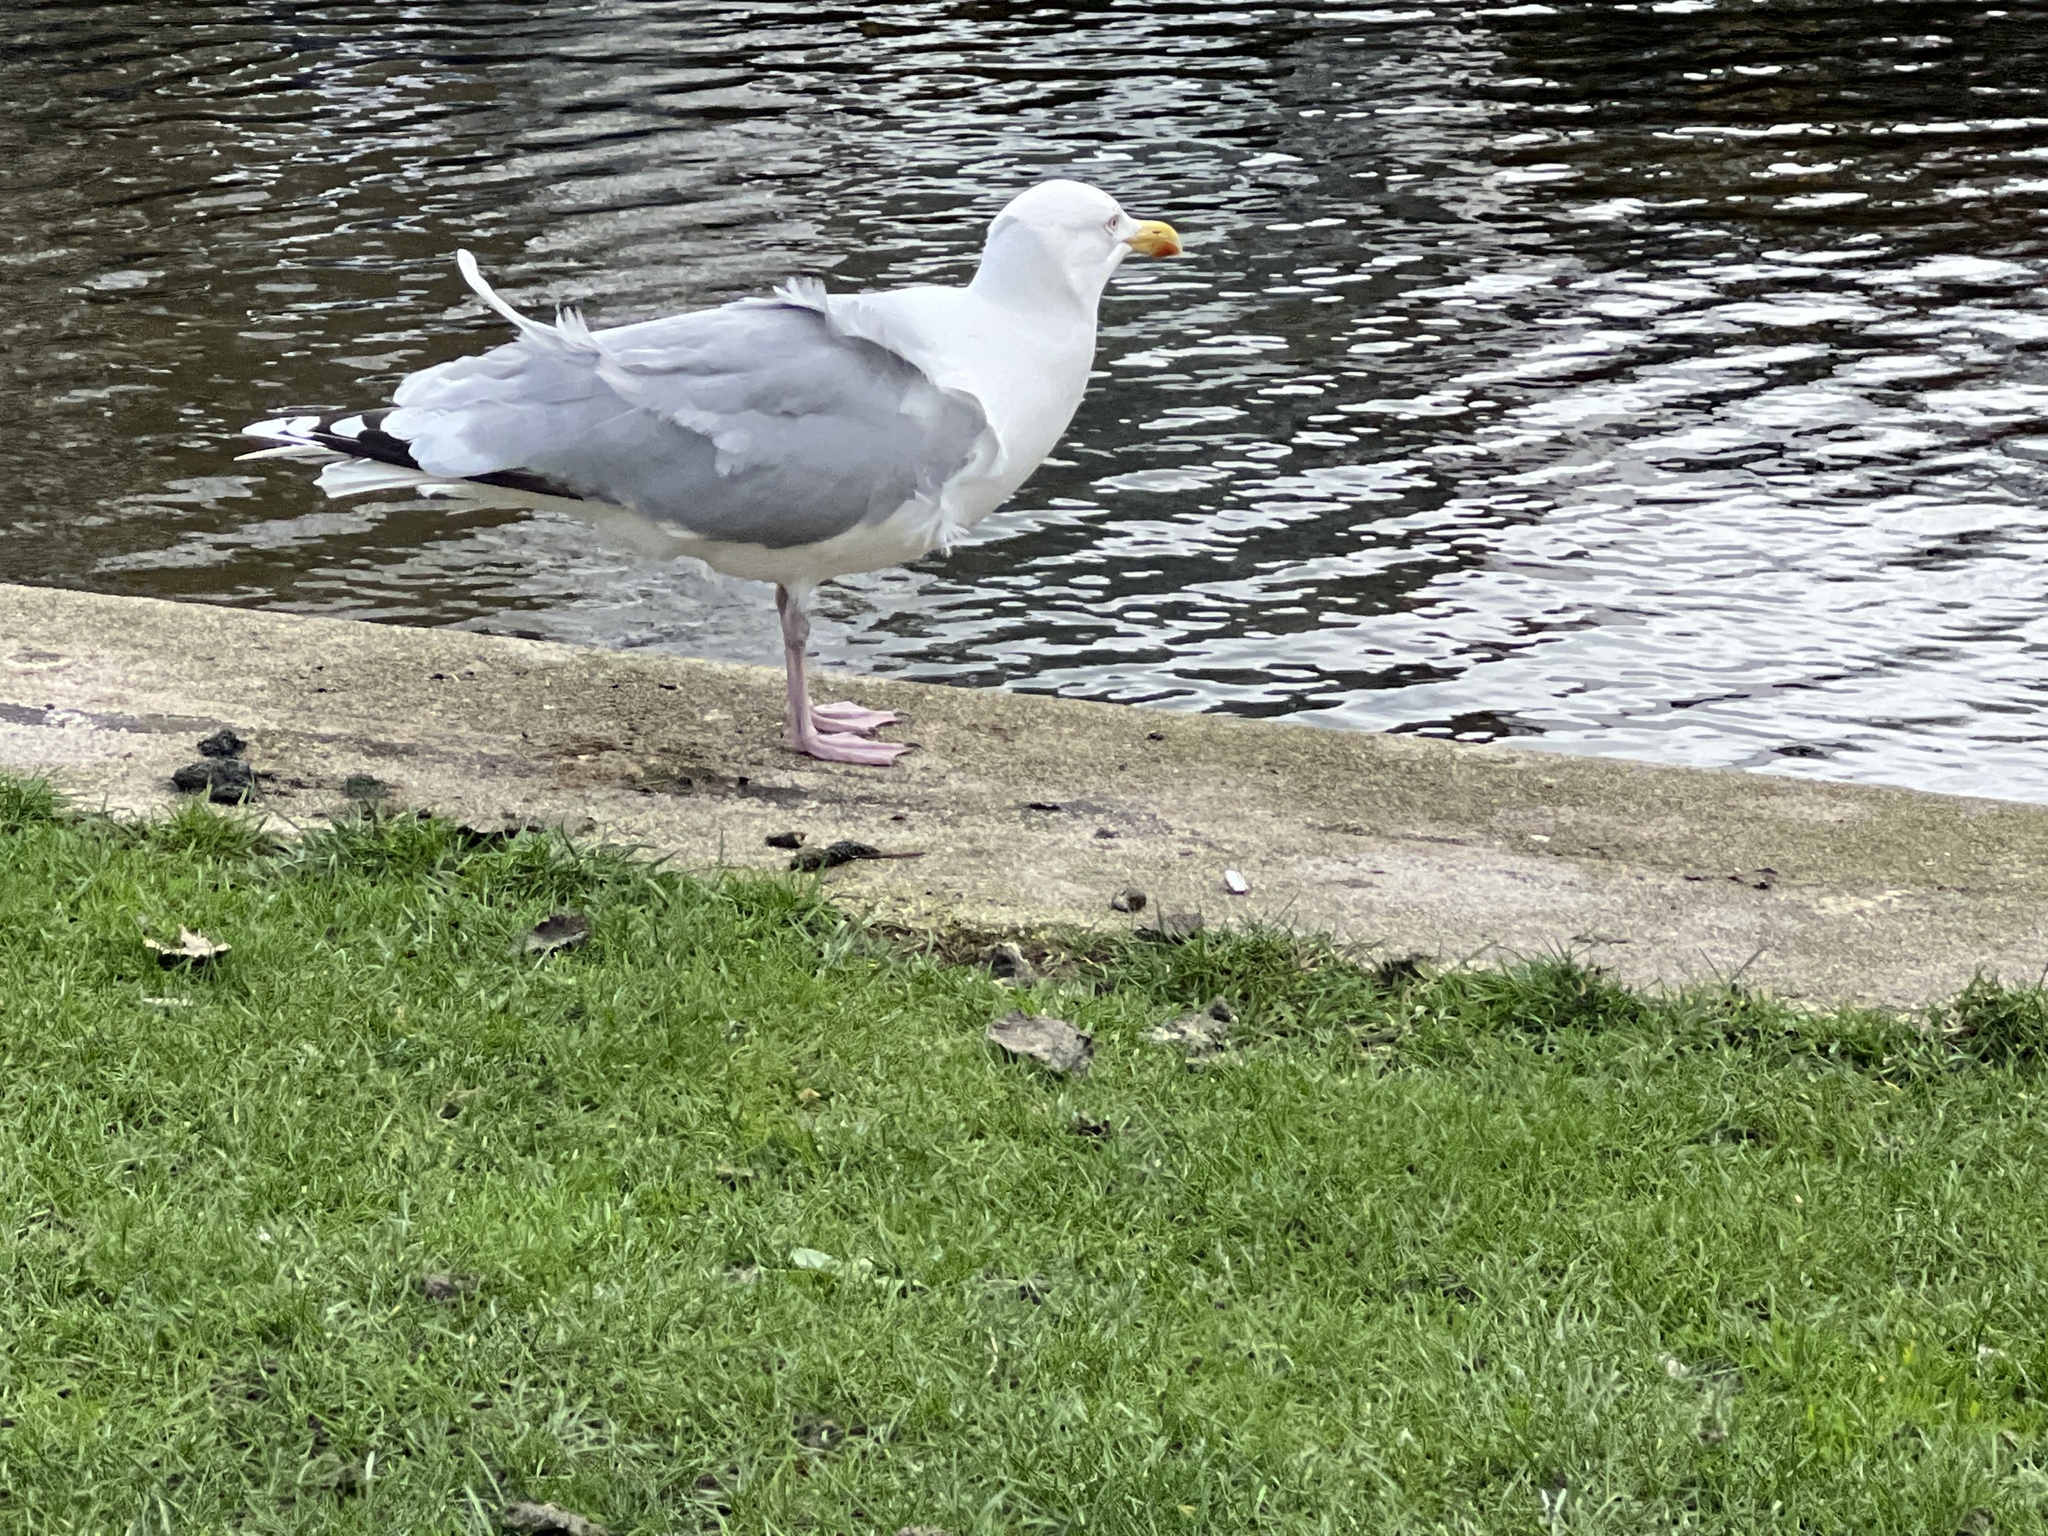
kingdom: Animalia
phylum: Chordata
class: Aves
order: Charadriiformes
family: Laridae
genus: Larus
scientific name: Larus argentatus
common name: Herring gull
